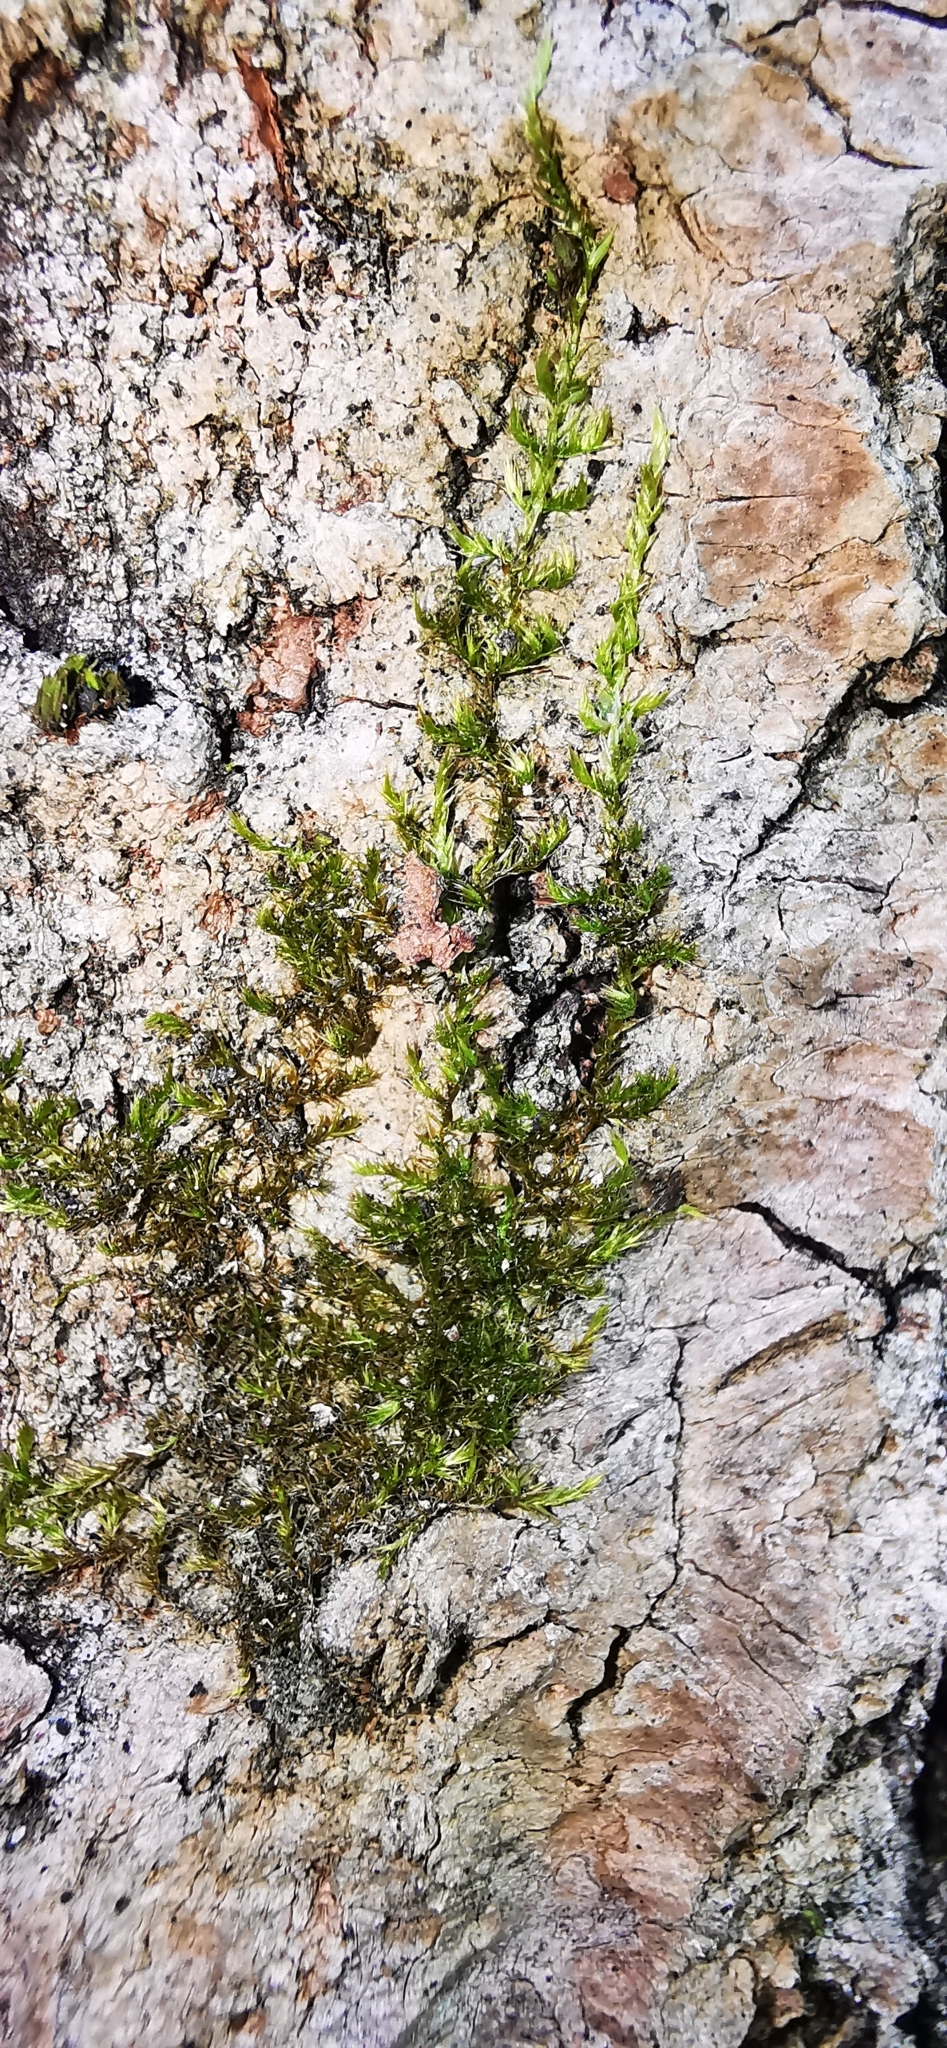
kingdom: Plantae
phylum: Bryophyta
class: Bryopsida
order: Hypnales
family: Pylaisiaceae
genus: Pylaisia
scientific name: Pylaisia polyantha
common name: Many-flowered leskea
